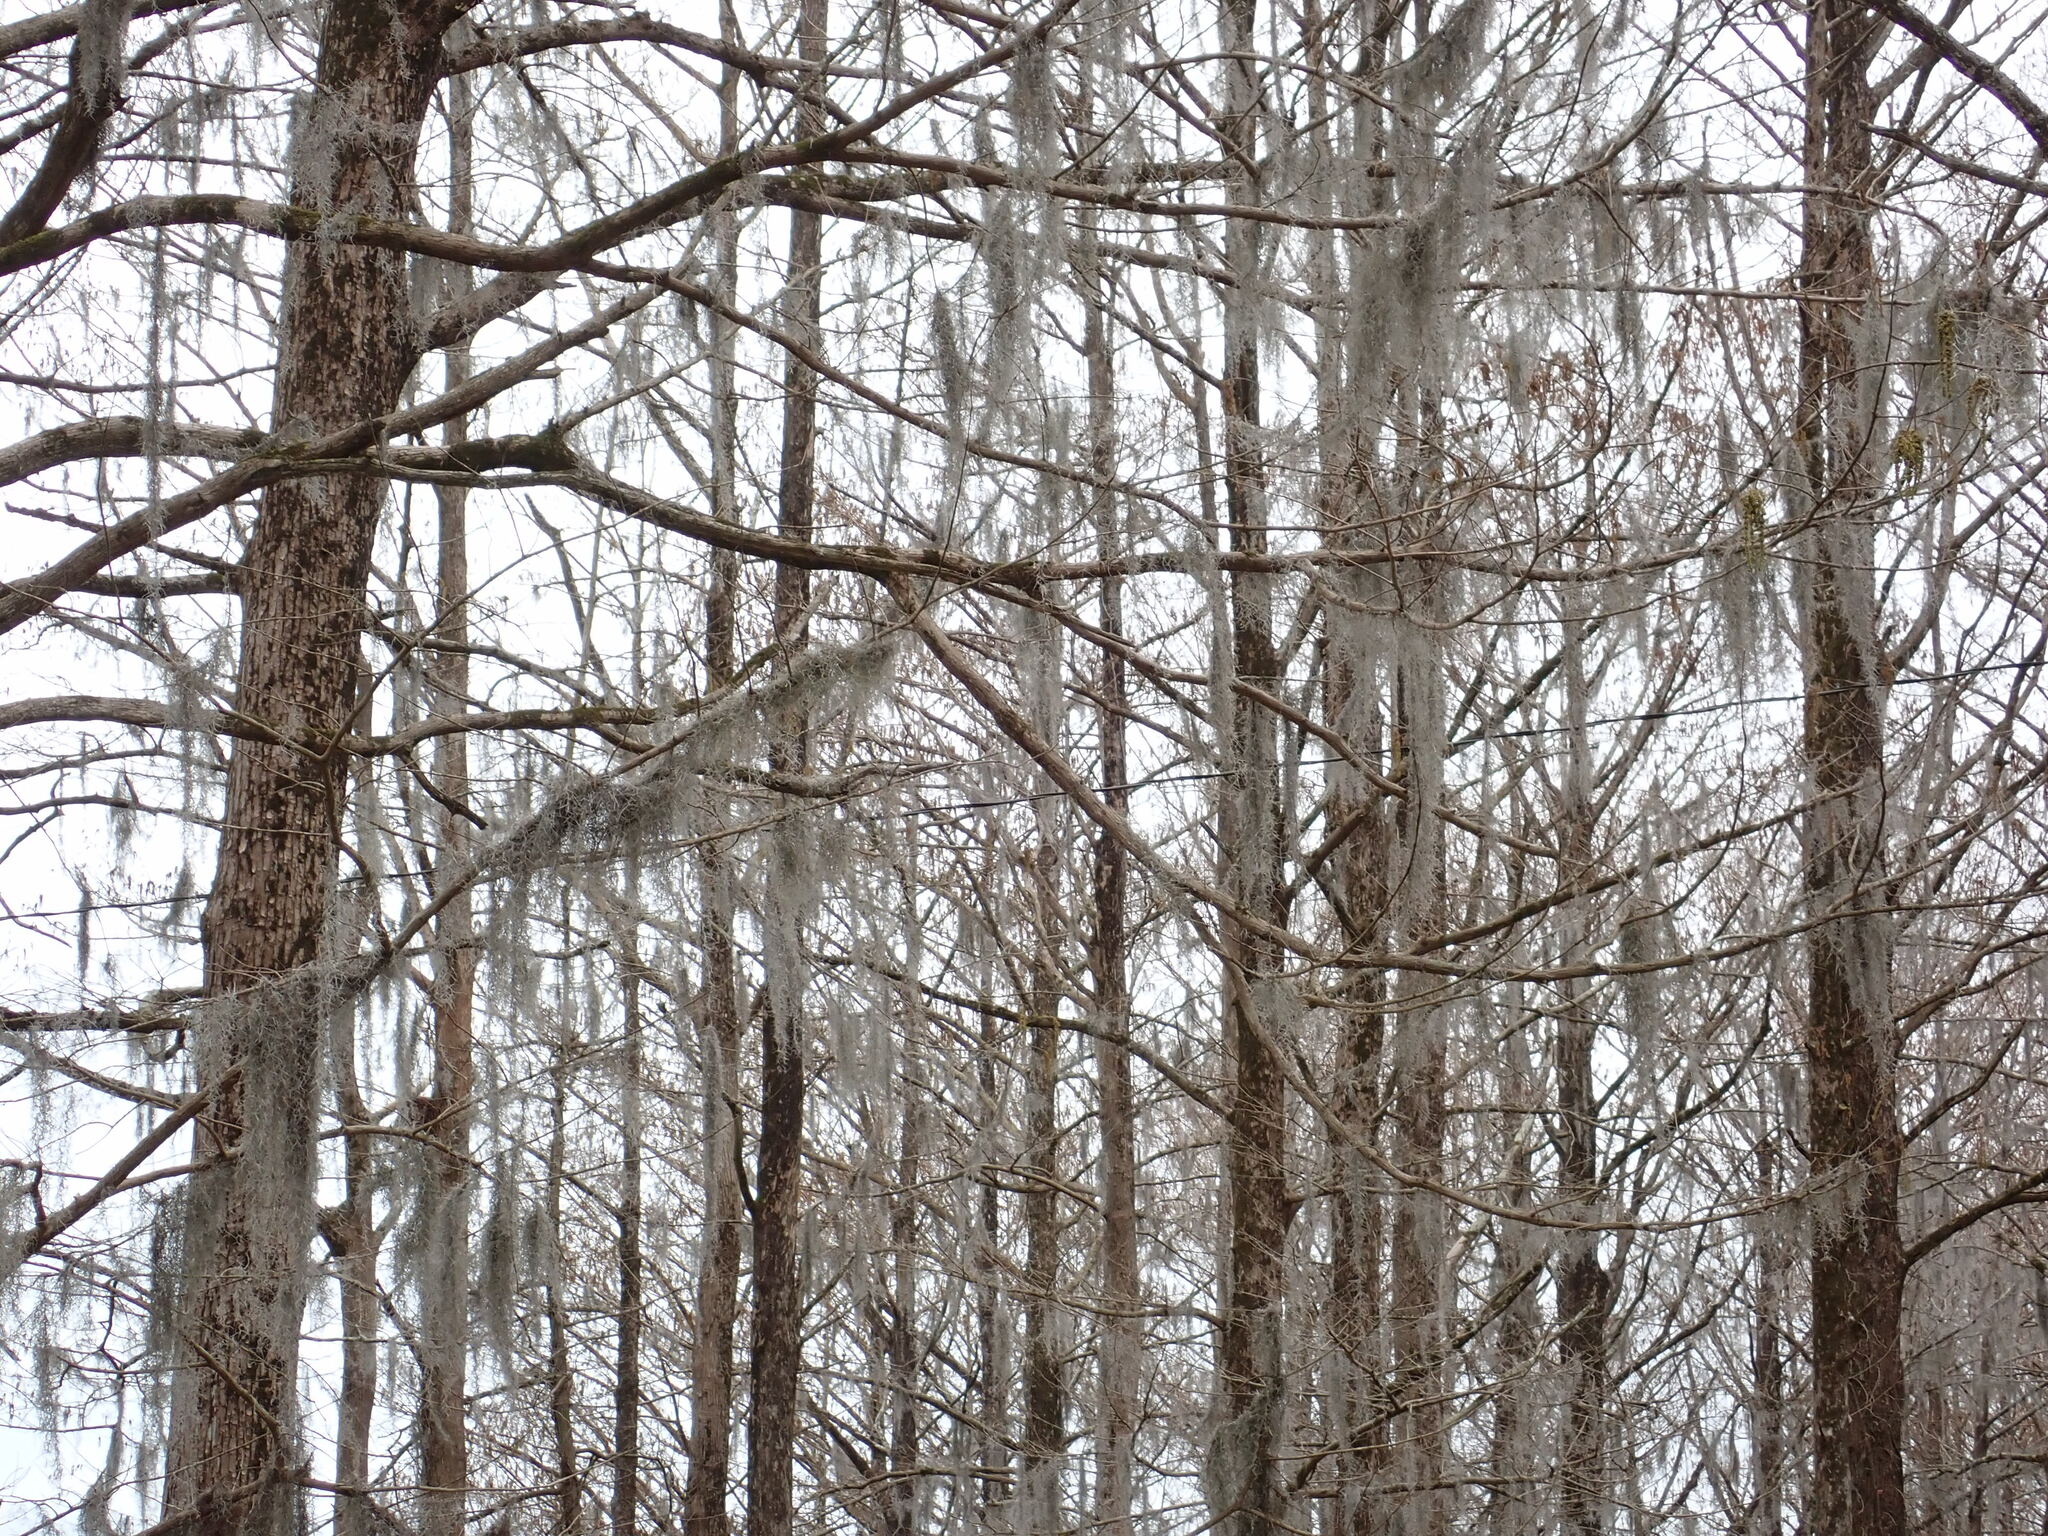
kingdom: Plantae
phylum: Tracheophyta
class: Liliopsida
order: Poales
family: Bromeliaceae
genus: Tillandsia
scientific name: Tillandsia usneoides
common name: Spanish moss
